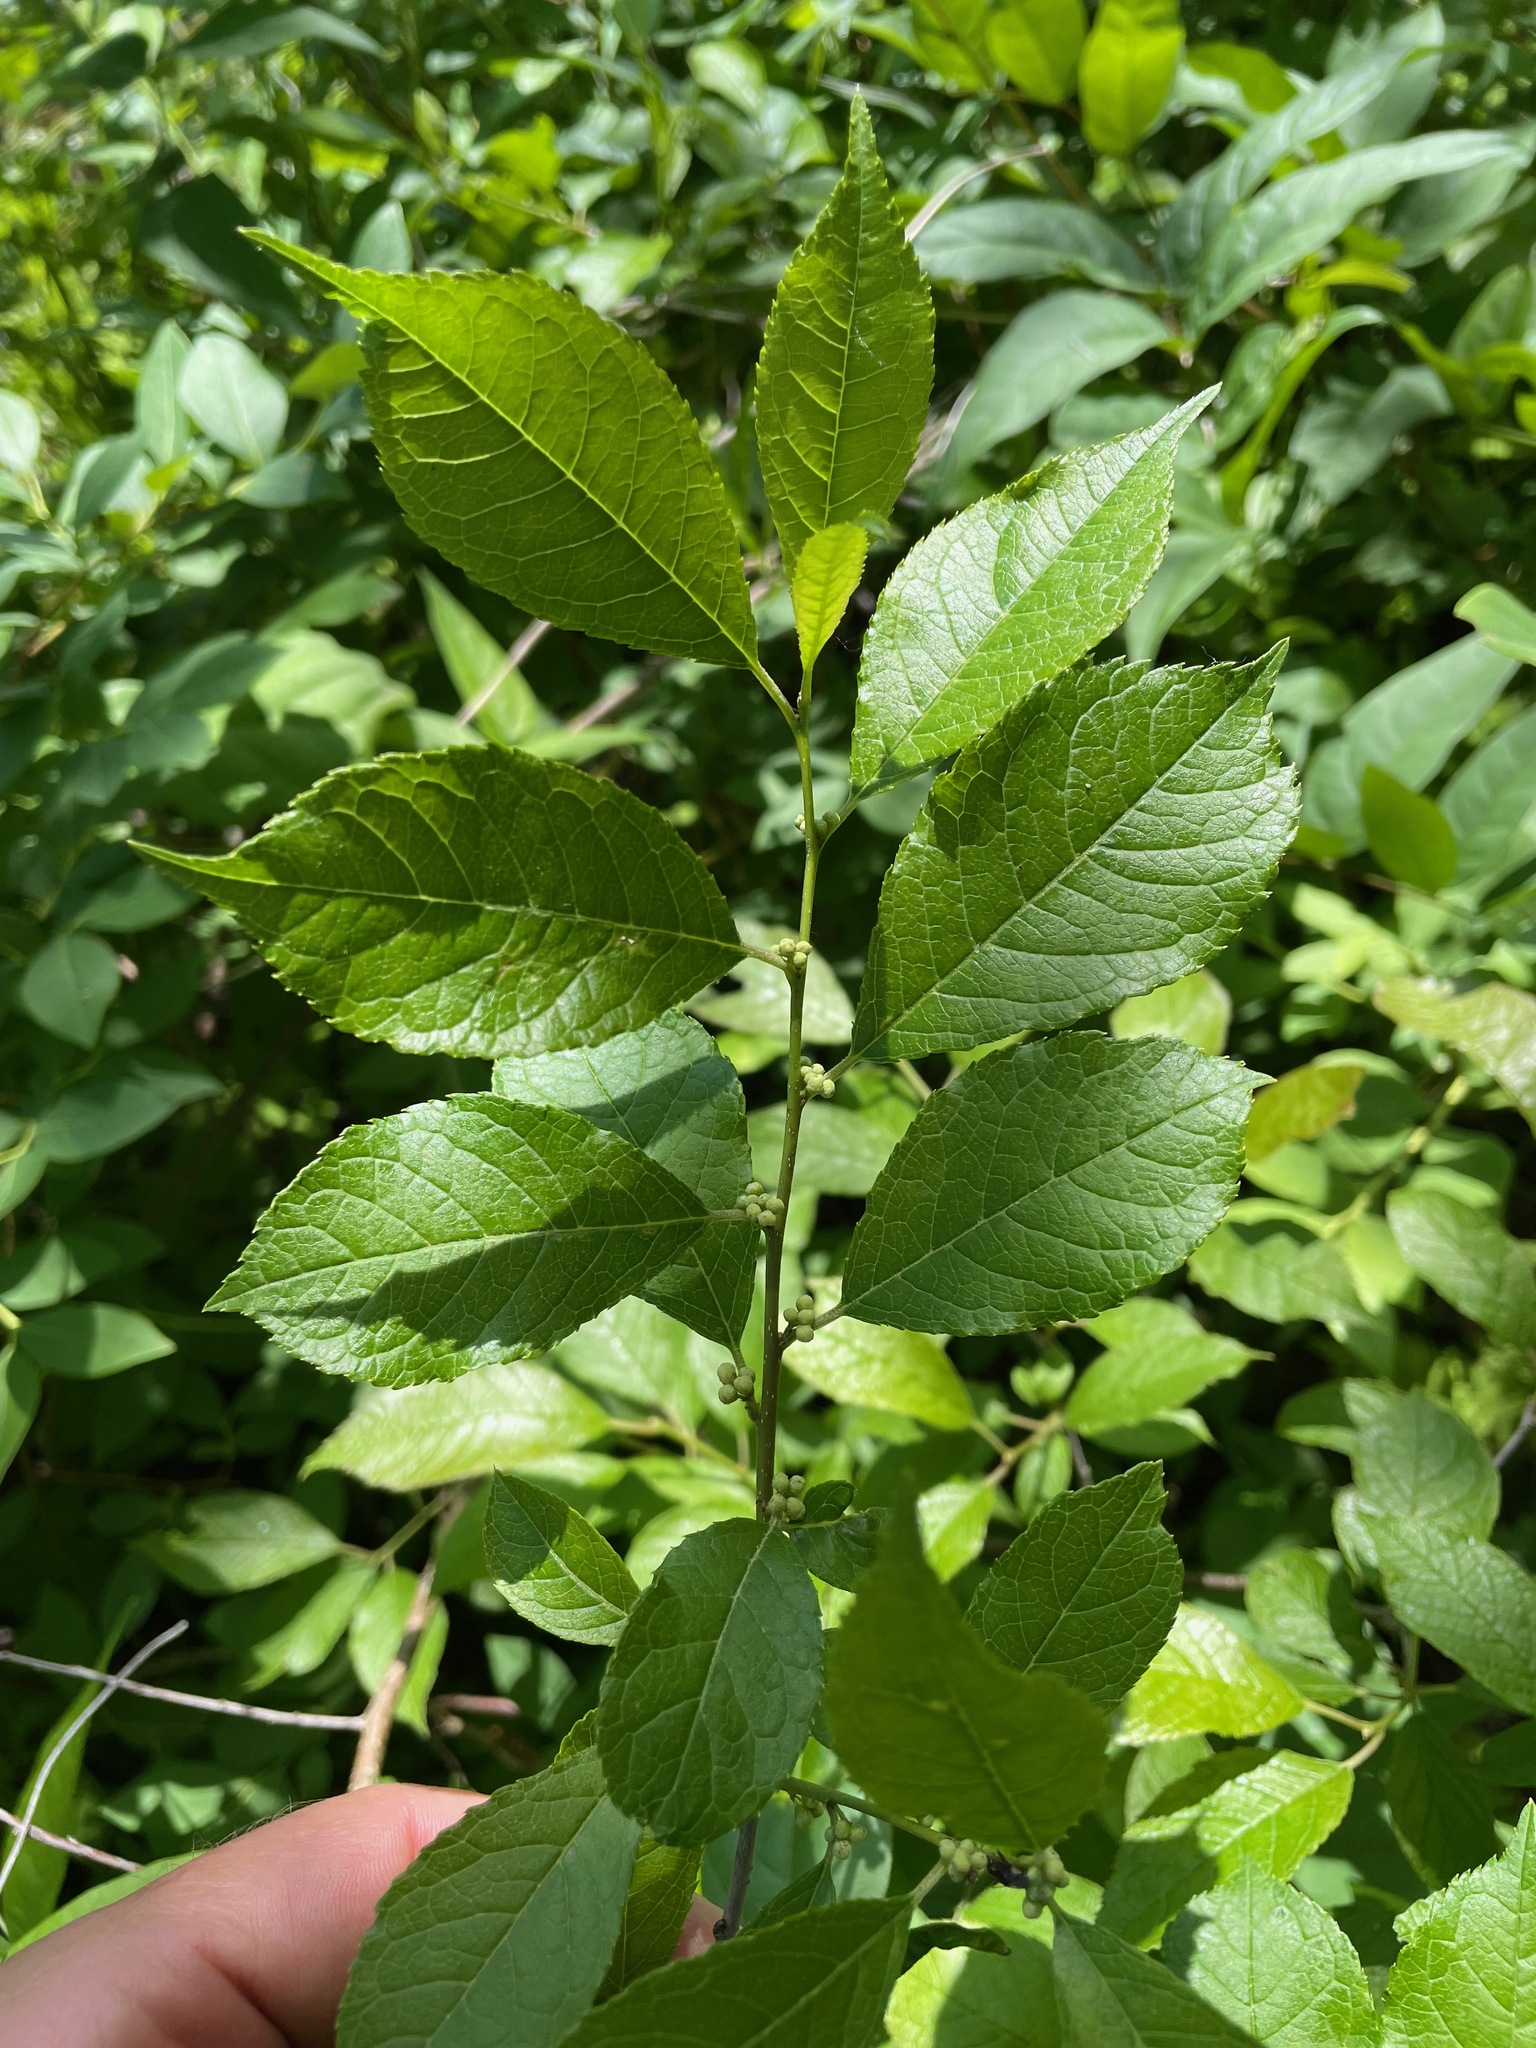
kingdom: Plantae
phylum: Tracheophyta
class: Magnoliopsida
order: Aquifoliales
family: Aquifoliaceae
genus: Ilex
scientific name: Ilex verticillata
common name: Virginia winterberry
